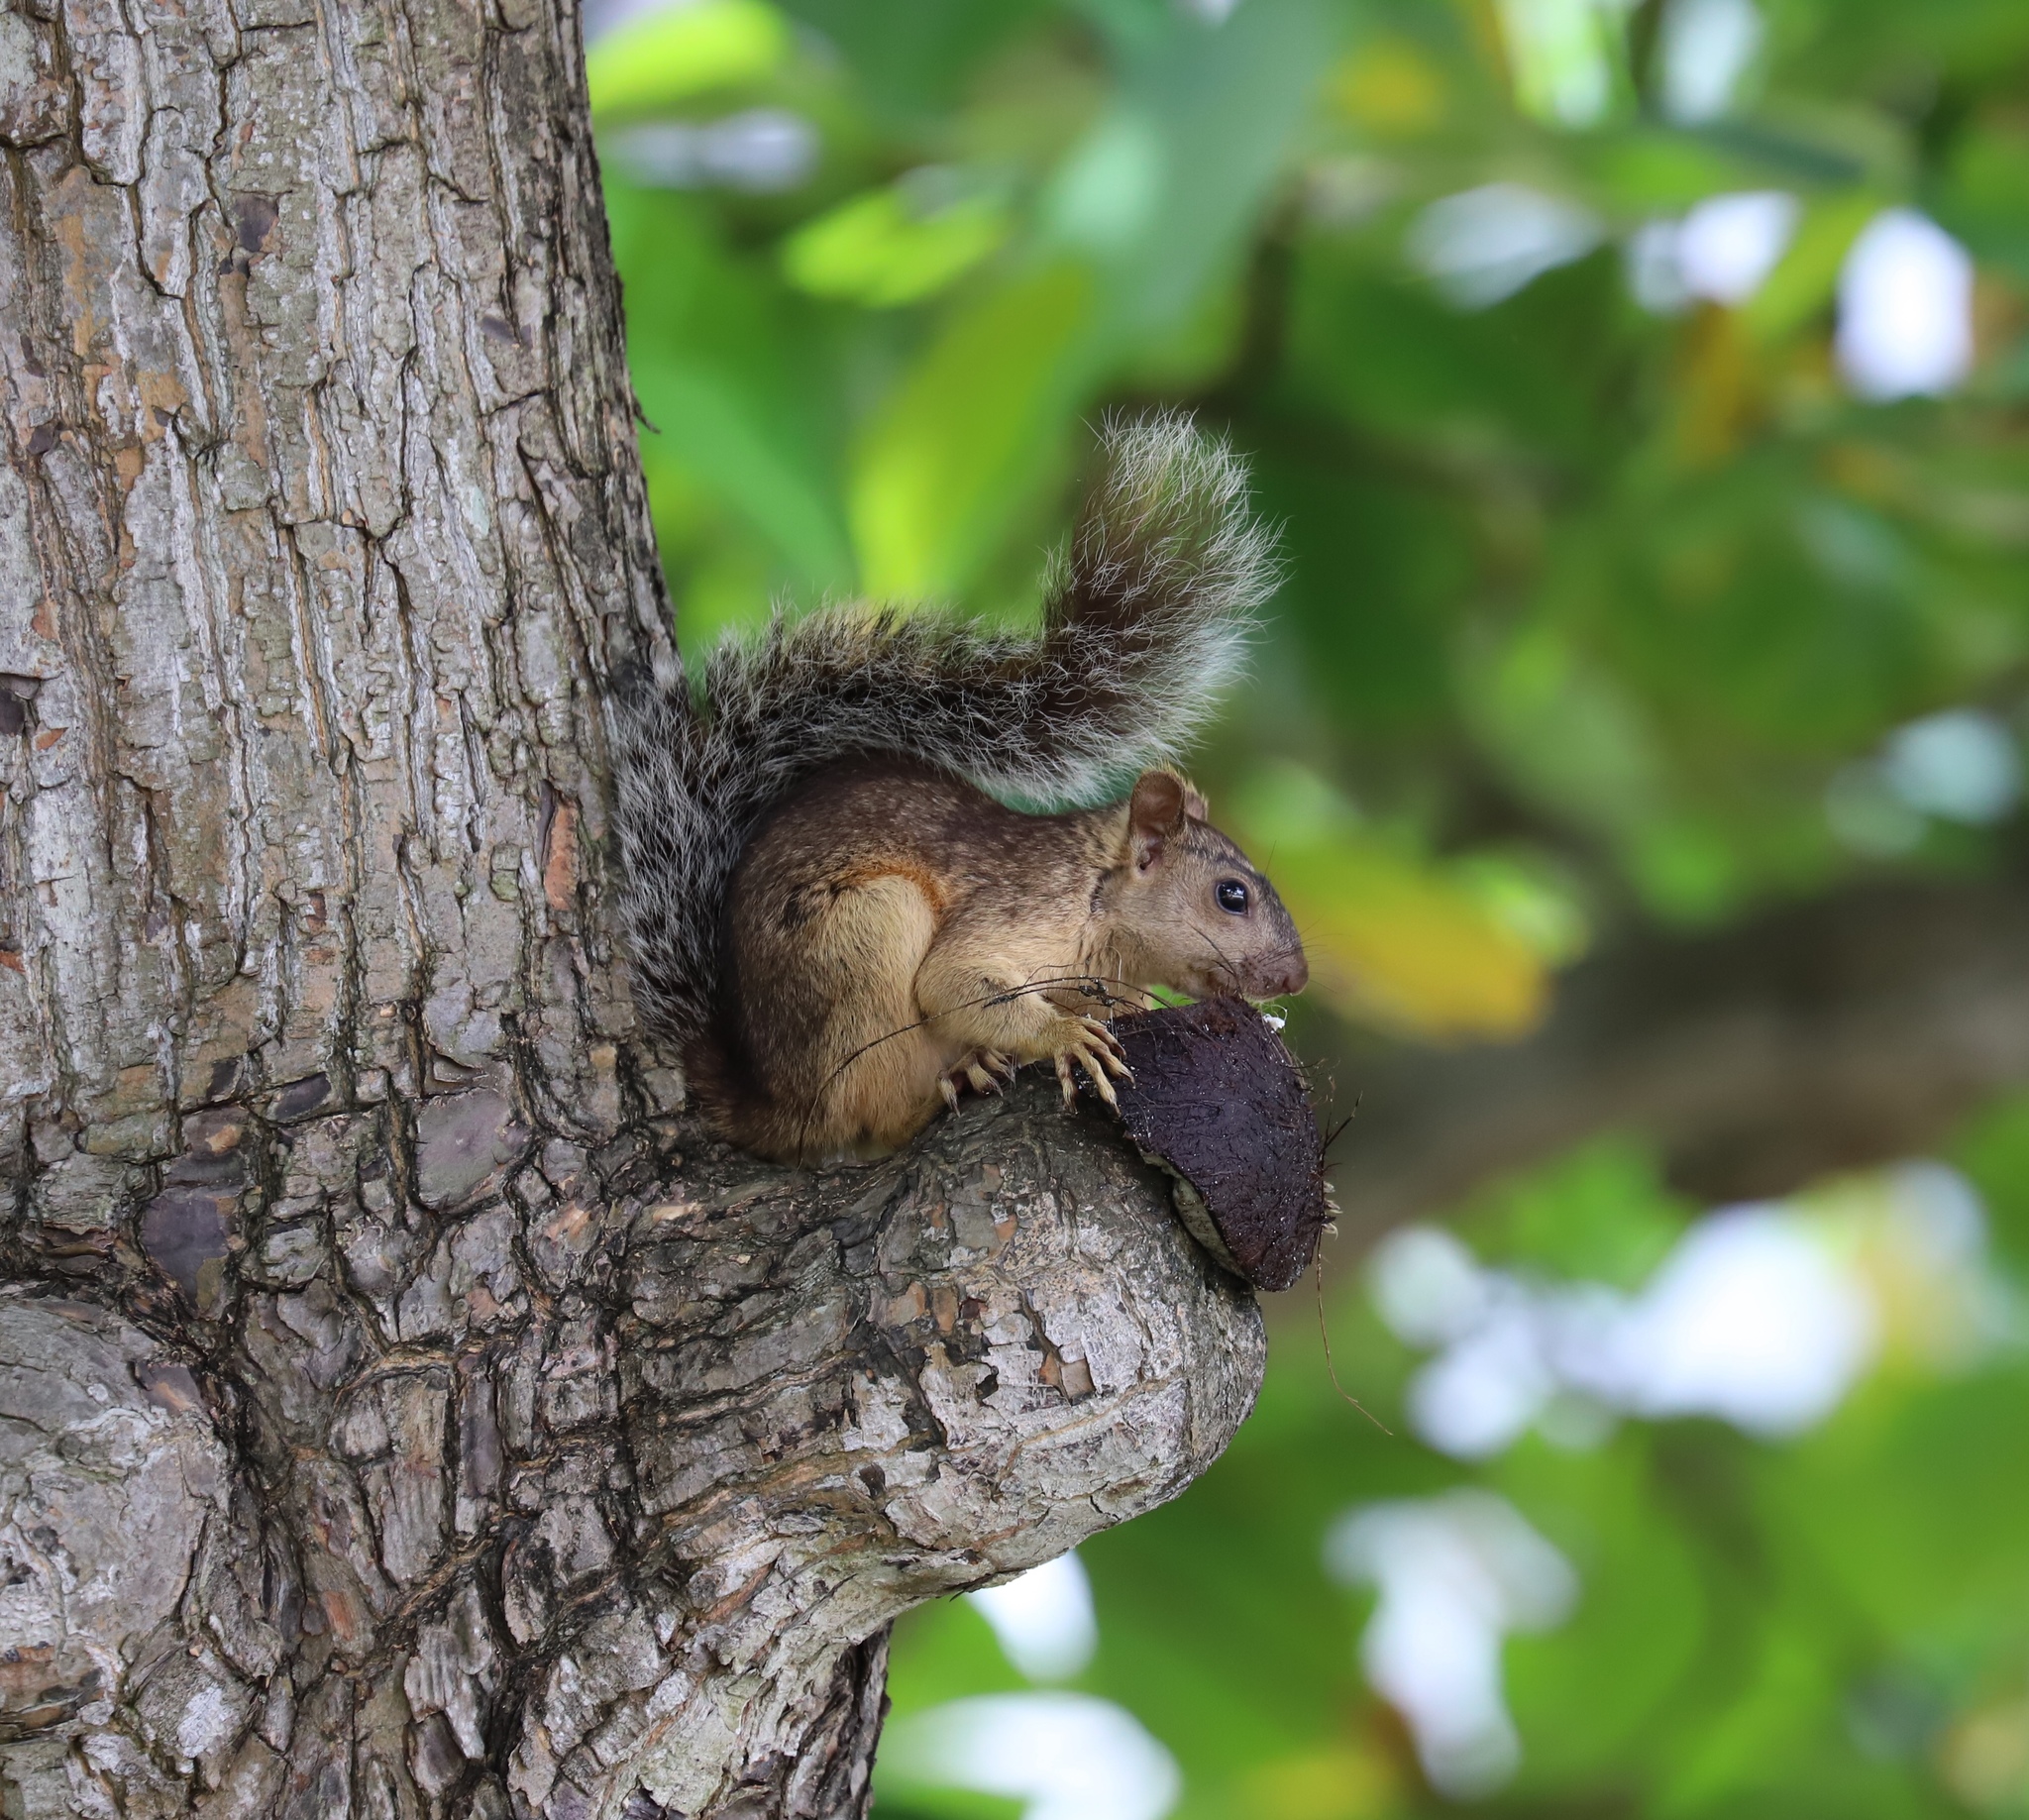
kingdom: Animalia
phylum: Chordata
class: Mammalia
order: Rodentia
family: Sciuridae
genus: Sciurus
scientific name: Sciurus variegatoides
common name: Variegated squirrel
